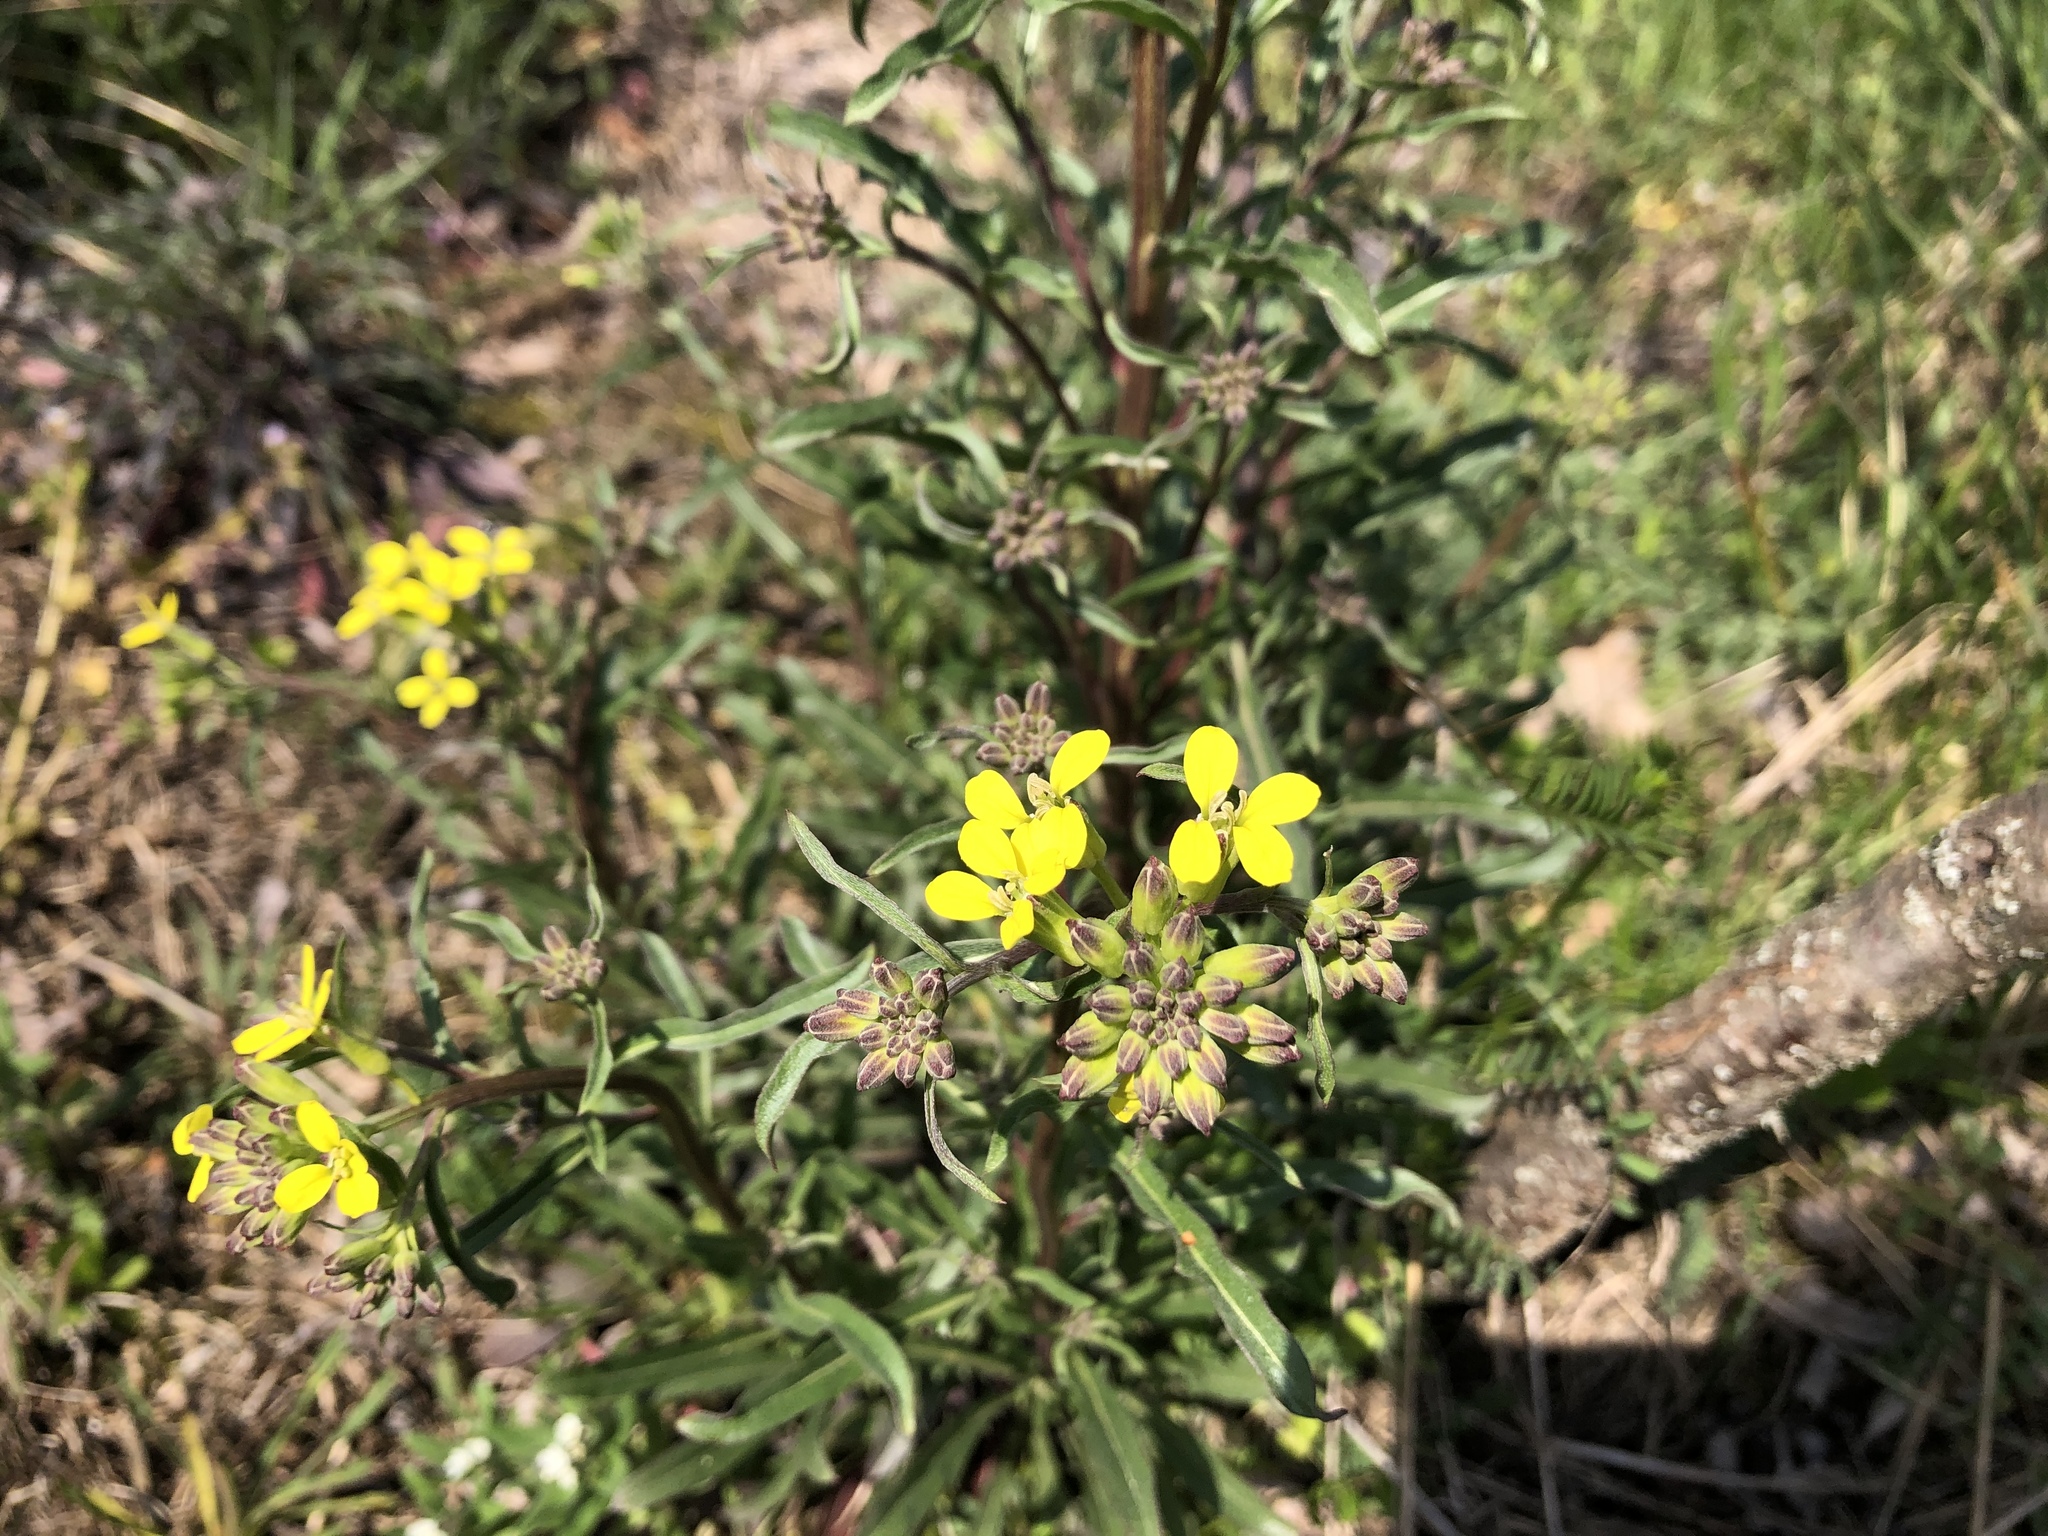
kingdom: Plantae
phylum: Tracheophyta
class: Magnoliopsida
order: Brassicales
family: Brassicaceae
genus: Erysimum
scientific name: Erysimum crepidifolium
